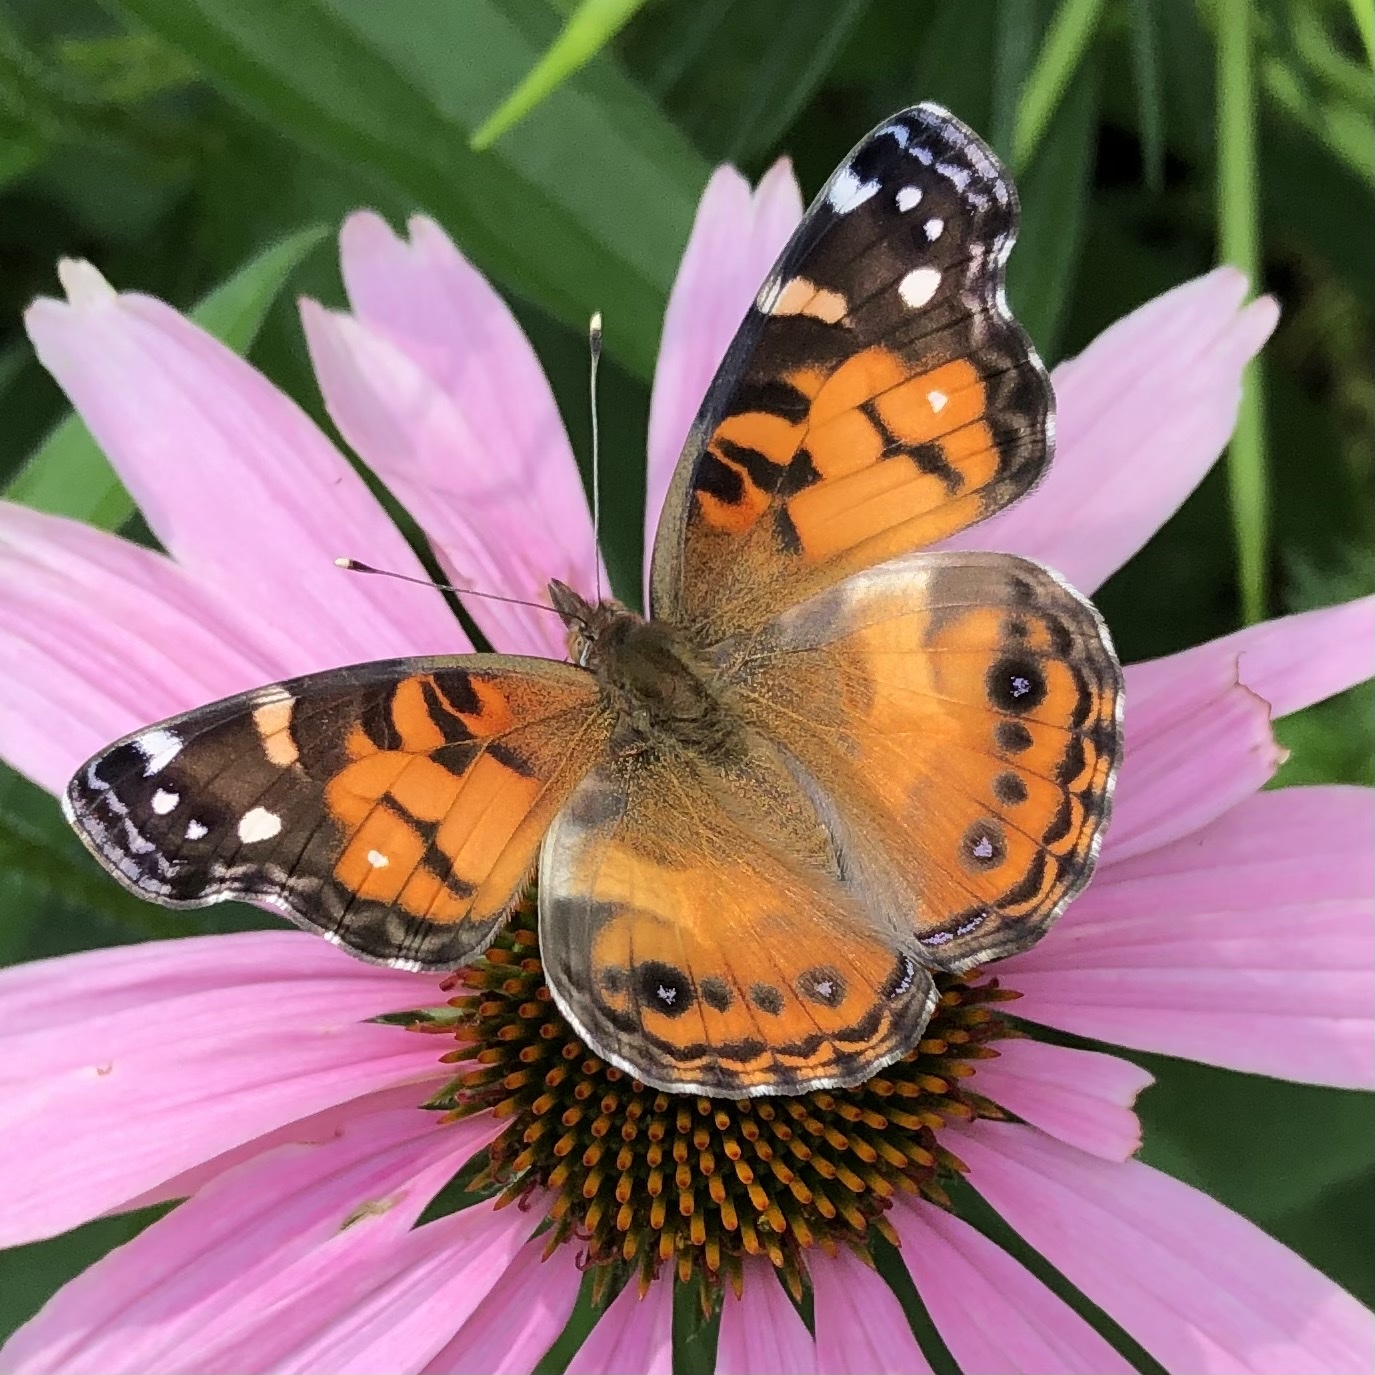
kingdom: Animalia
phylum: Arthropoda
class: Insecta
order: Lepidoptera
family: Nymphalidae
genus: Vanessa
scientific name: Vanessa virginiensis
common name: American lady
